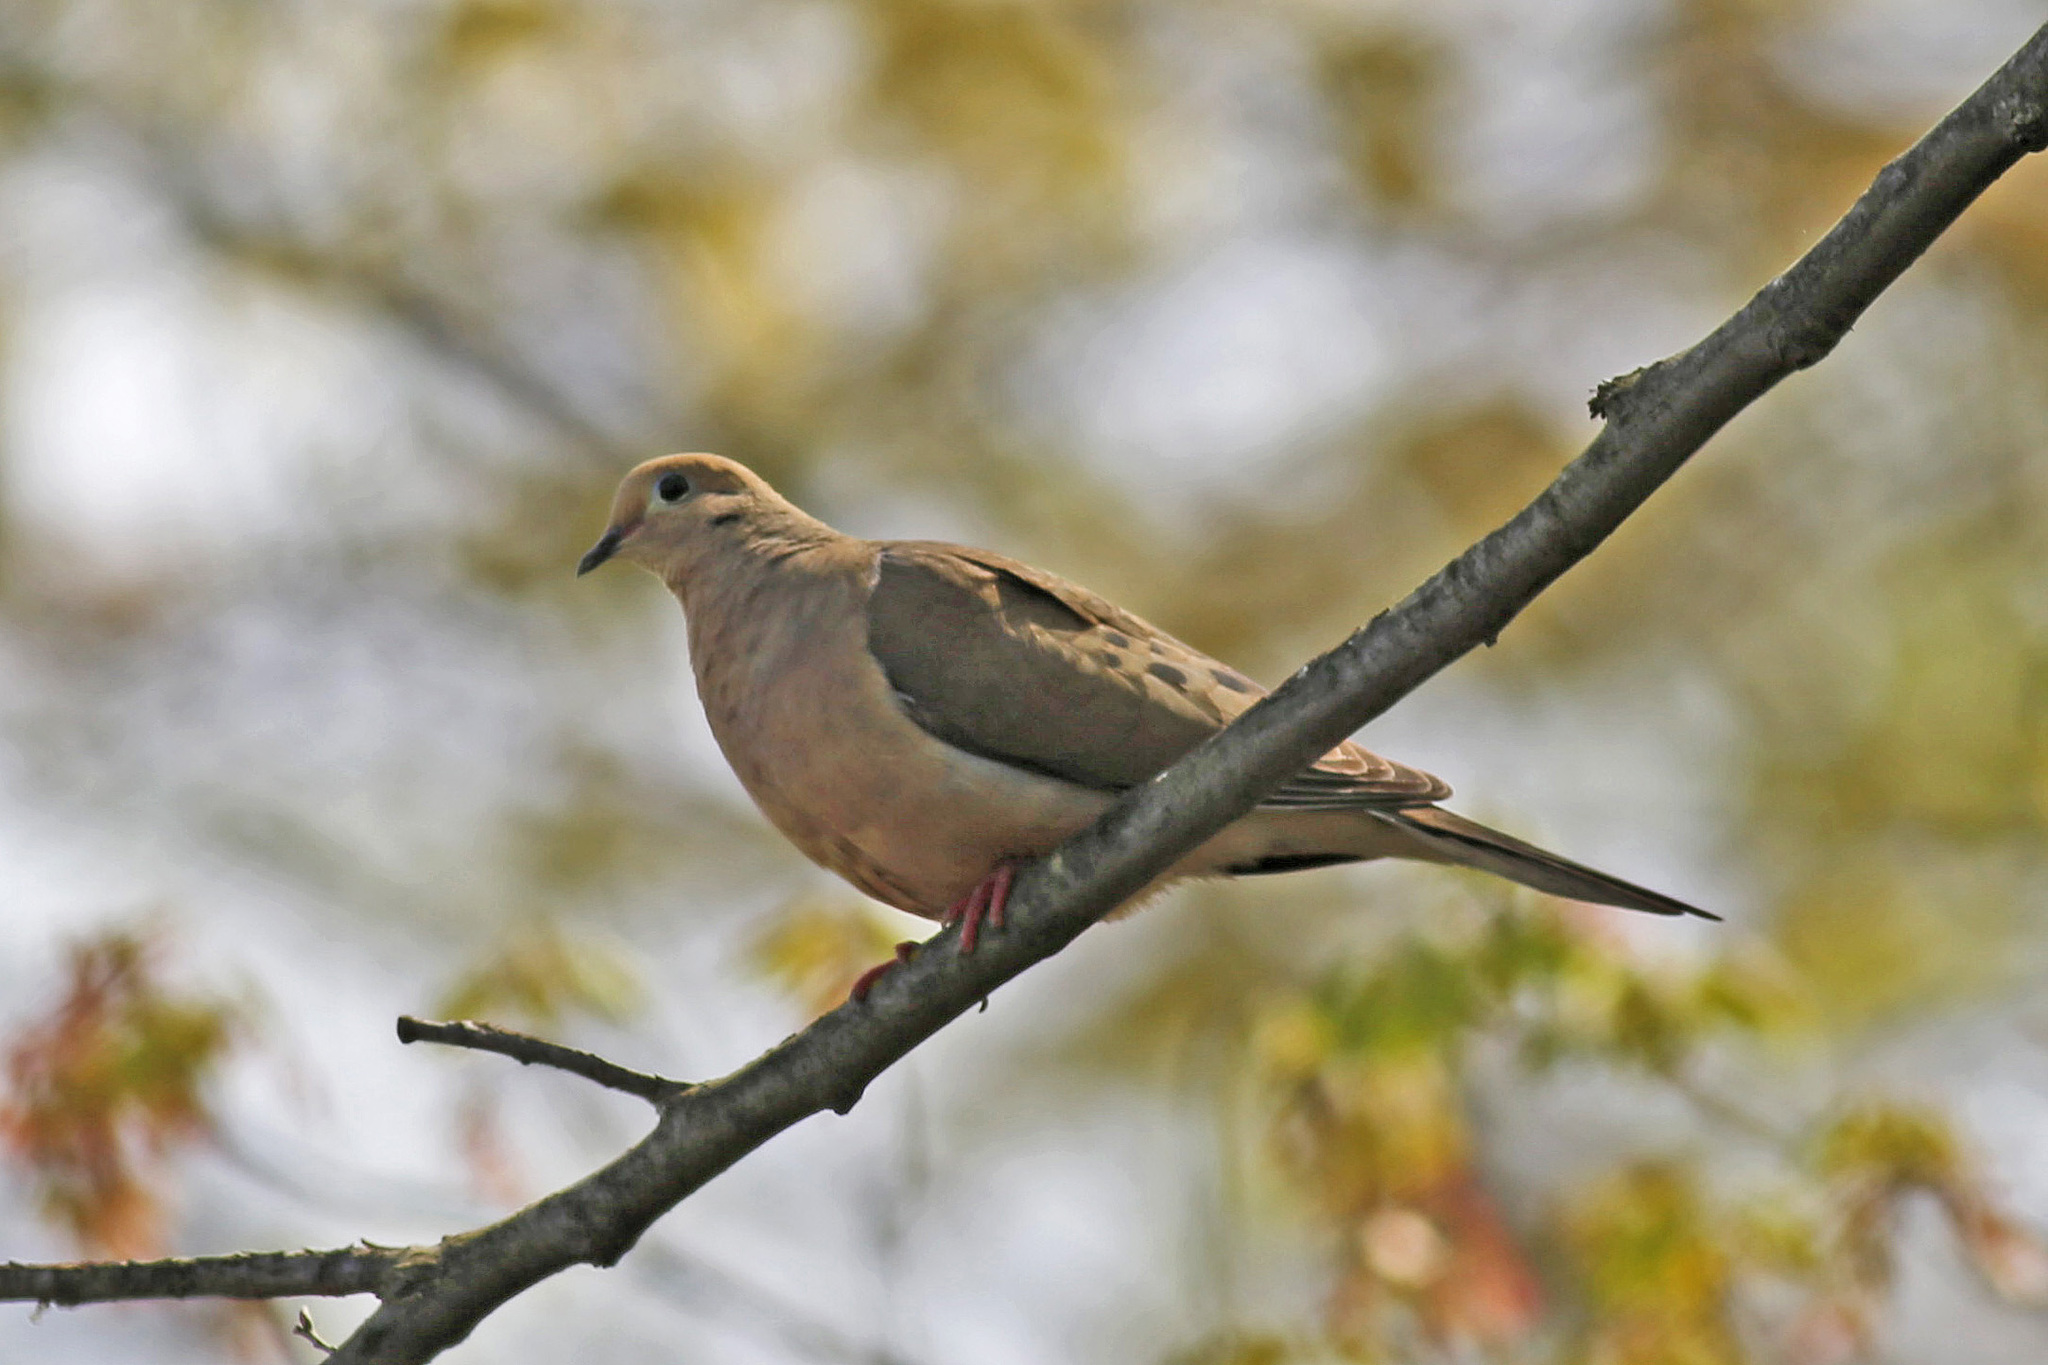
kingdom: Animalia
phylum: Chordata
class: Aves
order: Columbiformes
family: Columbidae
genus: Zenaida
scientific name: Zenaida macroura
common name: Mourning dove
